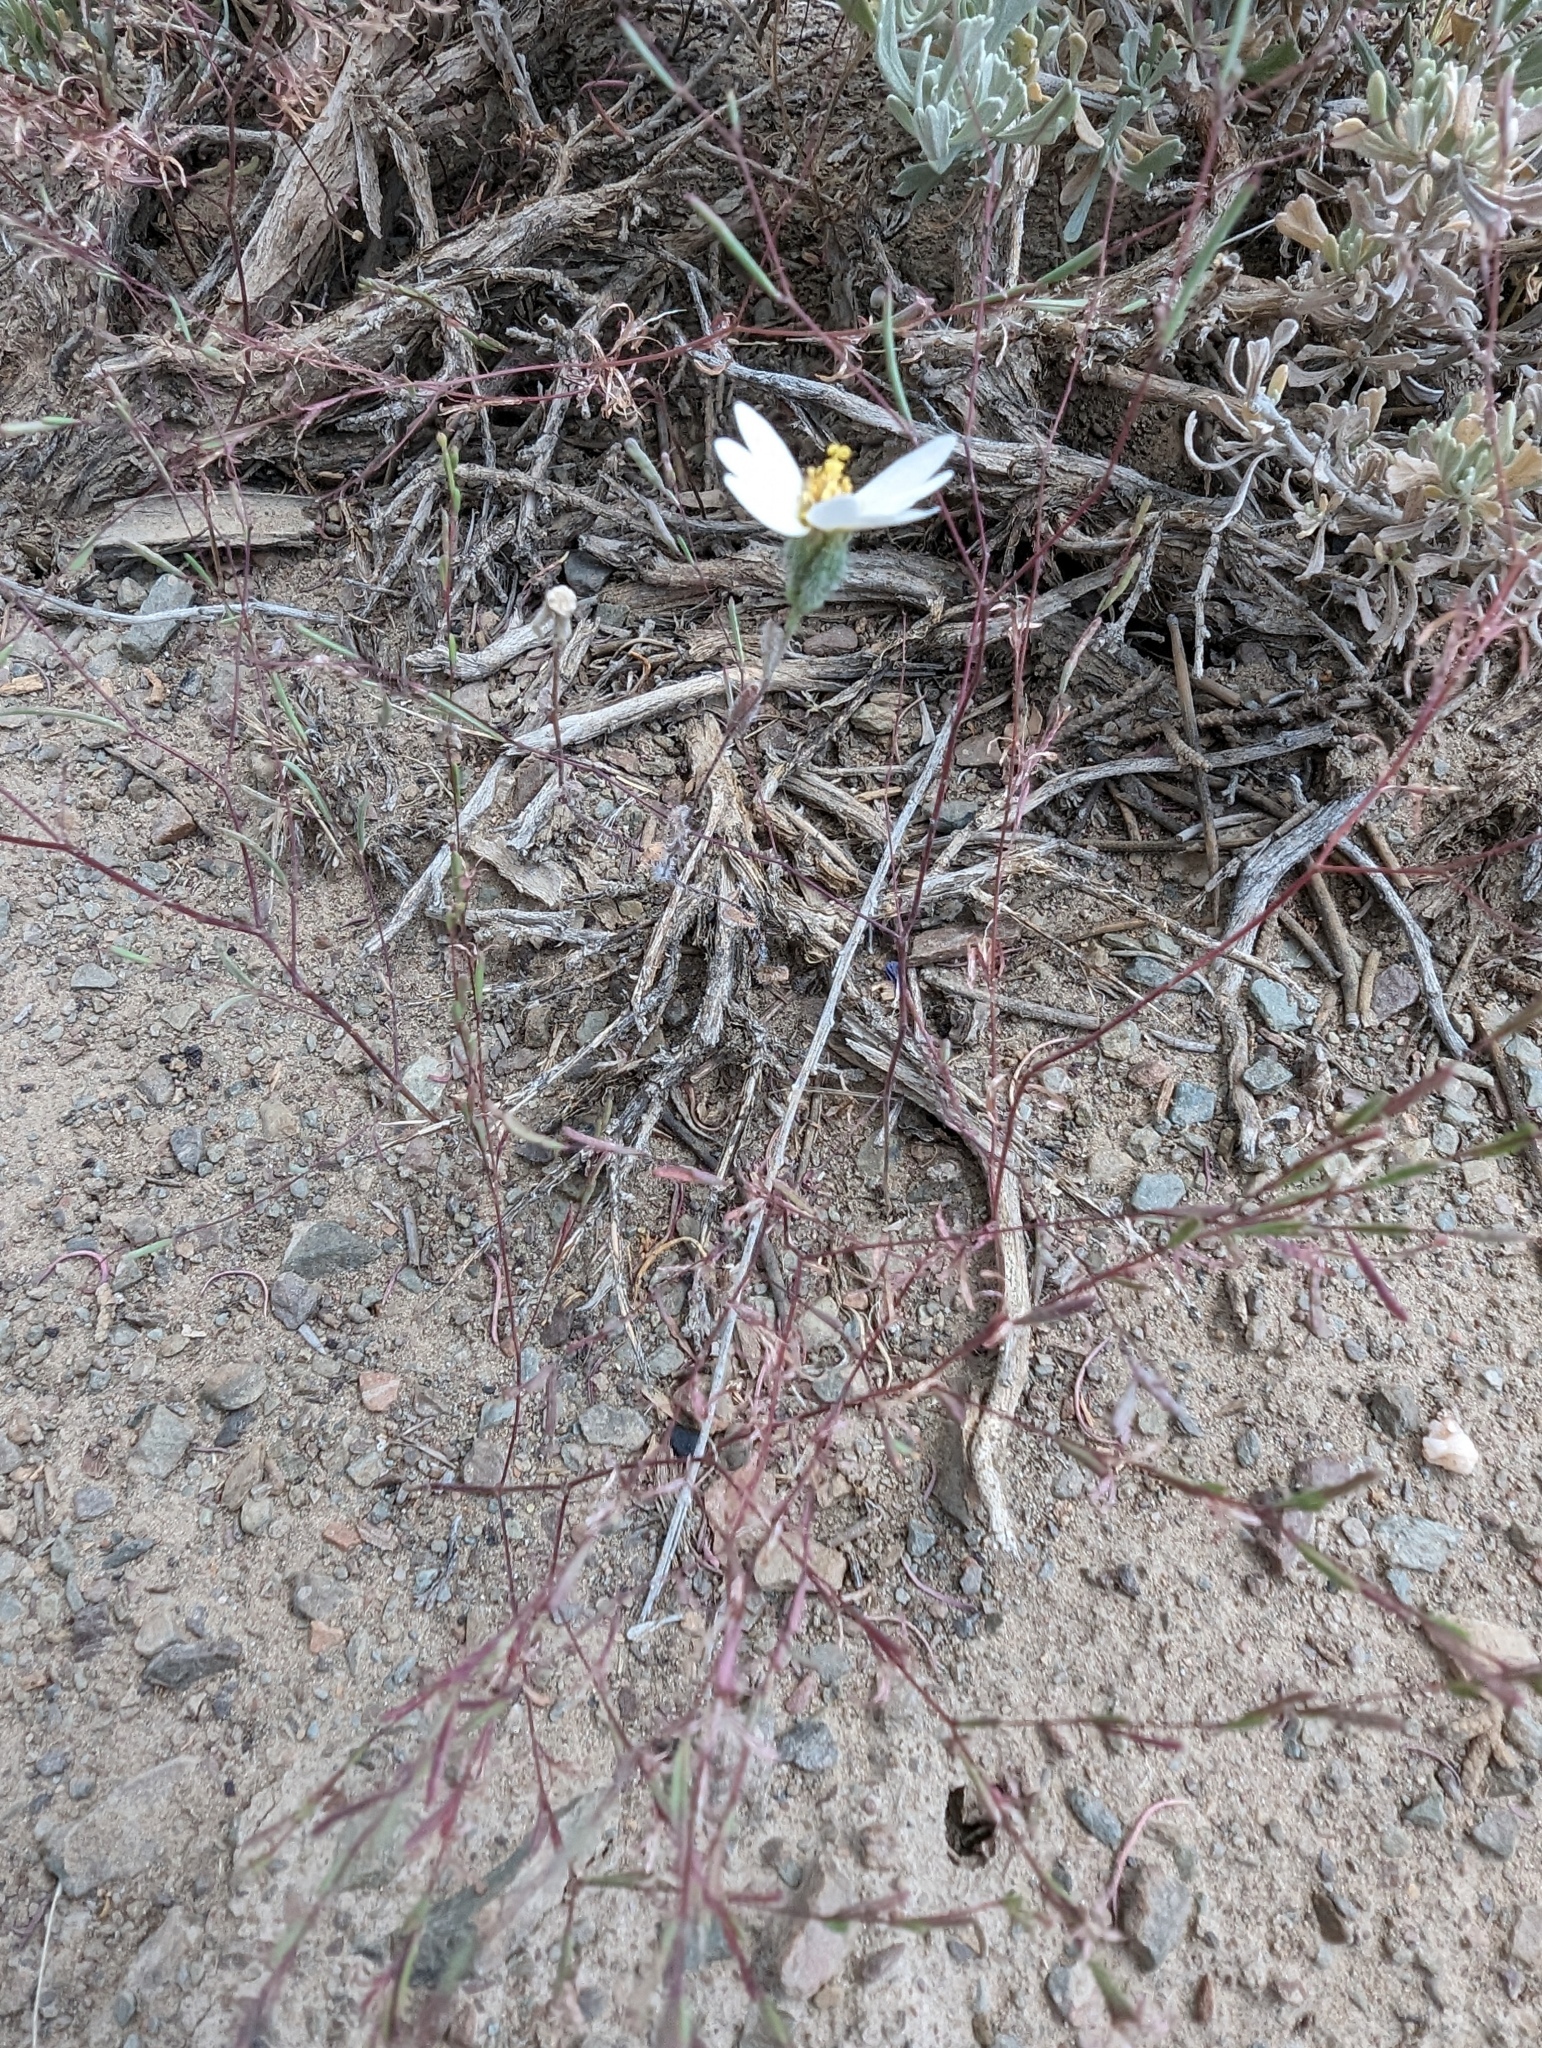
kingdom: Plantae
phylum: Tracheophyta
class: Magnoliopsida
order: Asterales
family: Asteraceae
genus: Layia
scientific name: Layia glandulosa
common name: White layia
